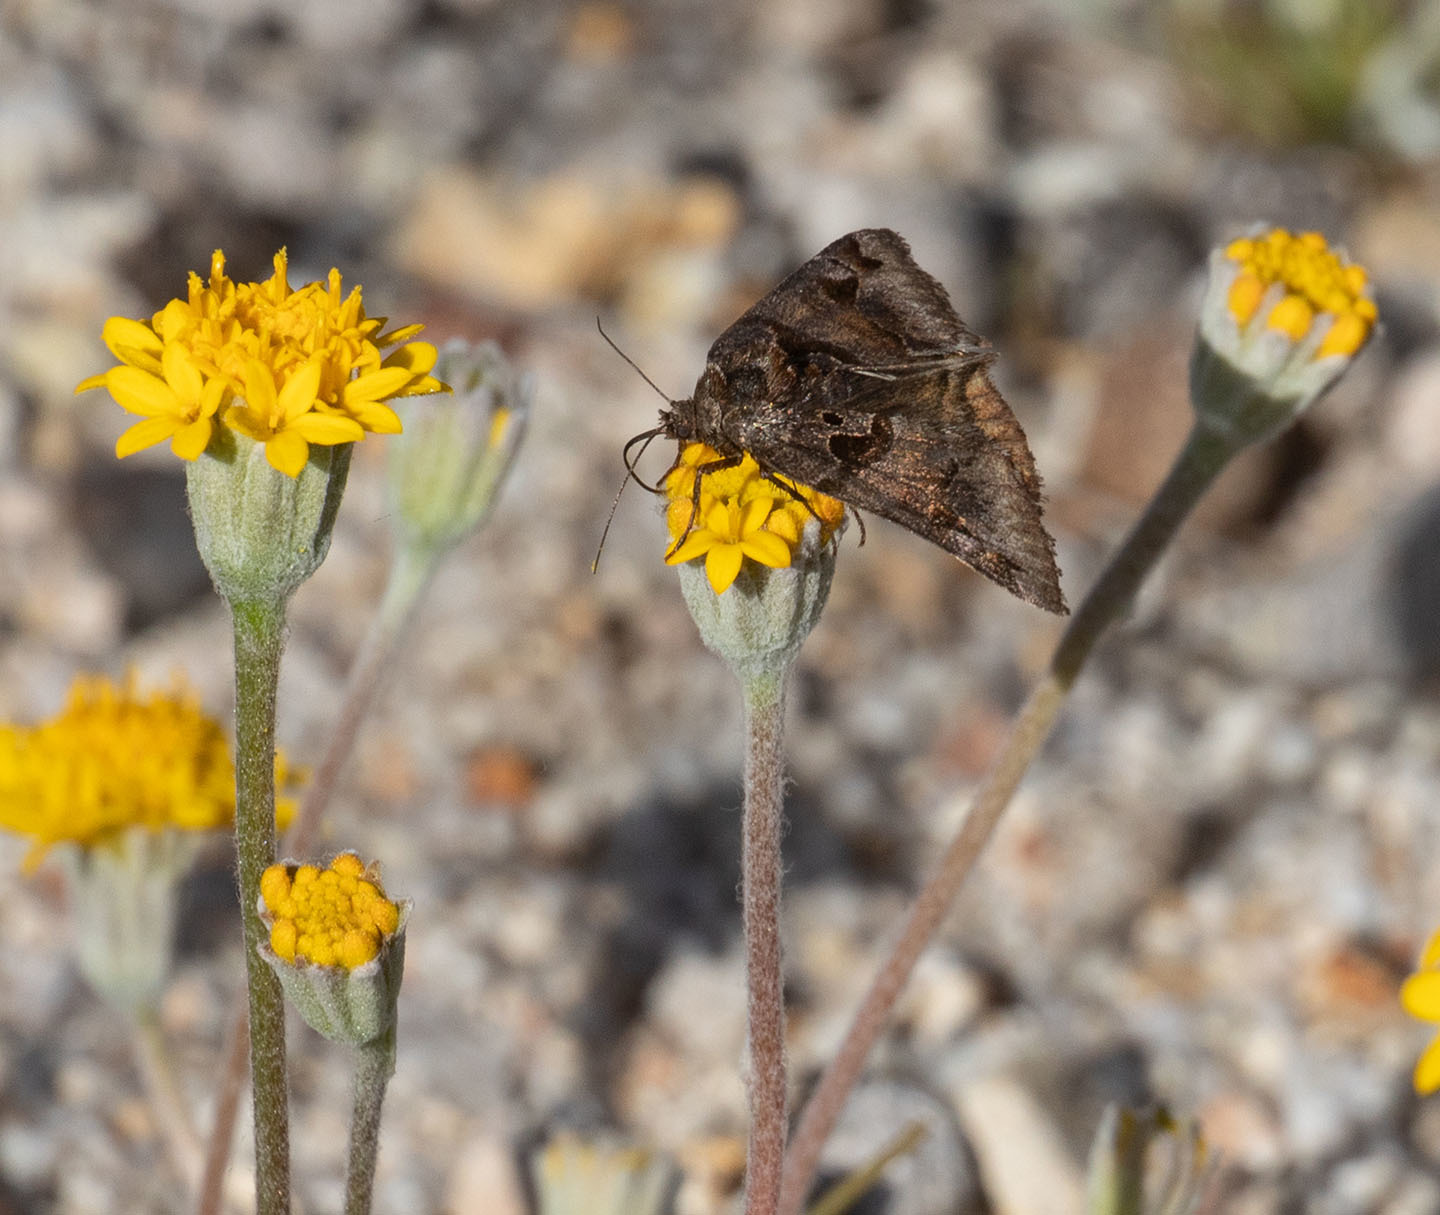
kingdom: Animalia
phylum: Arthropoda
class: Insecta
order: Lepidoptera
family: Erebidae
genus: Euclidia
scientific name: Euclidia ardita
